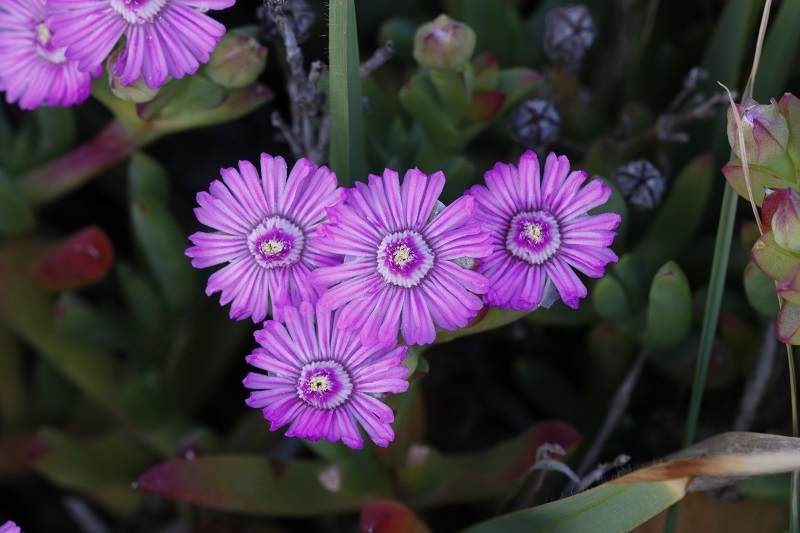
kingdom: Plantae
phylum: Tracheophyta
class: Magnoliopsida
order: Caryophyllales
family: Aizoaceae
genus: Ruschia
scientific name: Ruschia macowanii
